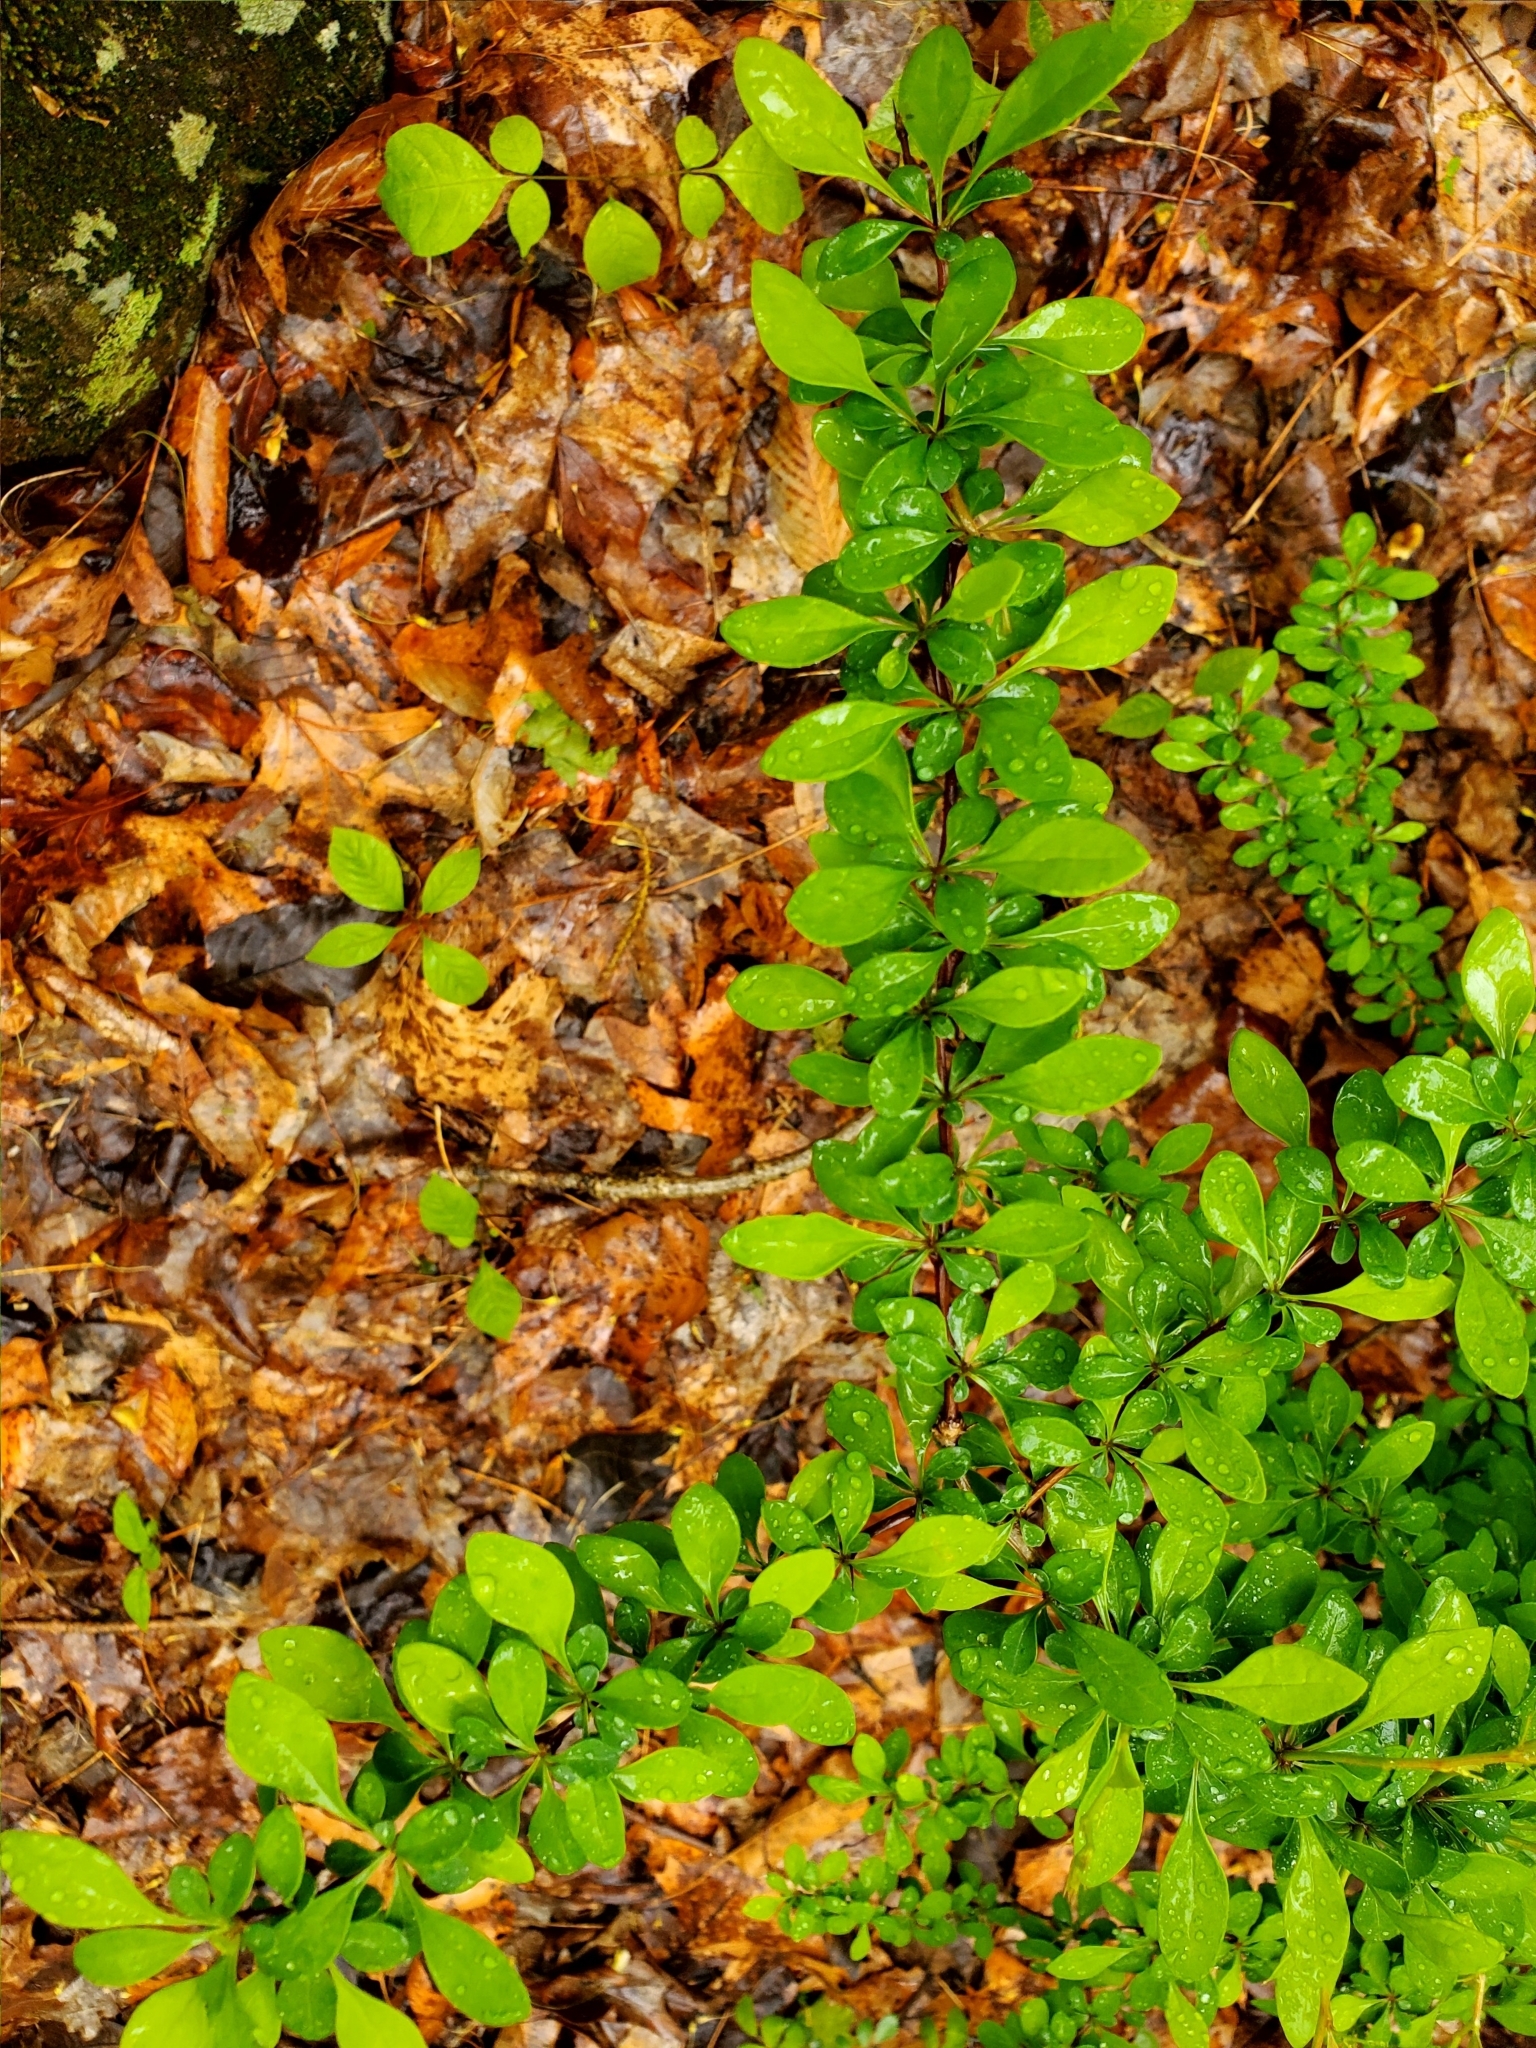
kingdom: Plantae
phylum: Tracheophyta
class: Magnoliopsida
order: Ranunculales
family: Berberidaceae
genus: Berberis
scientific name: Berberis thunbergii
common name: Japanese barberry
